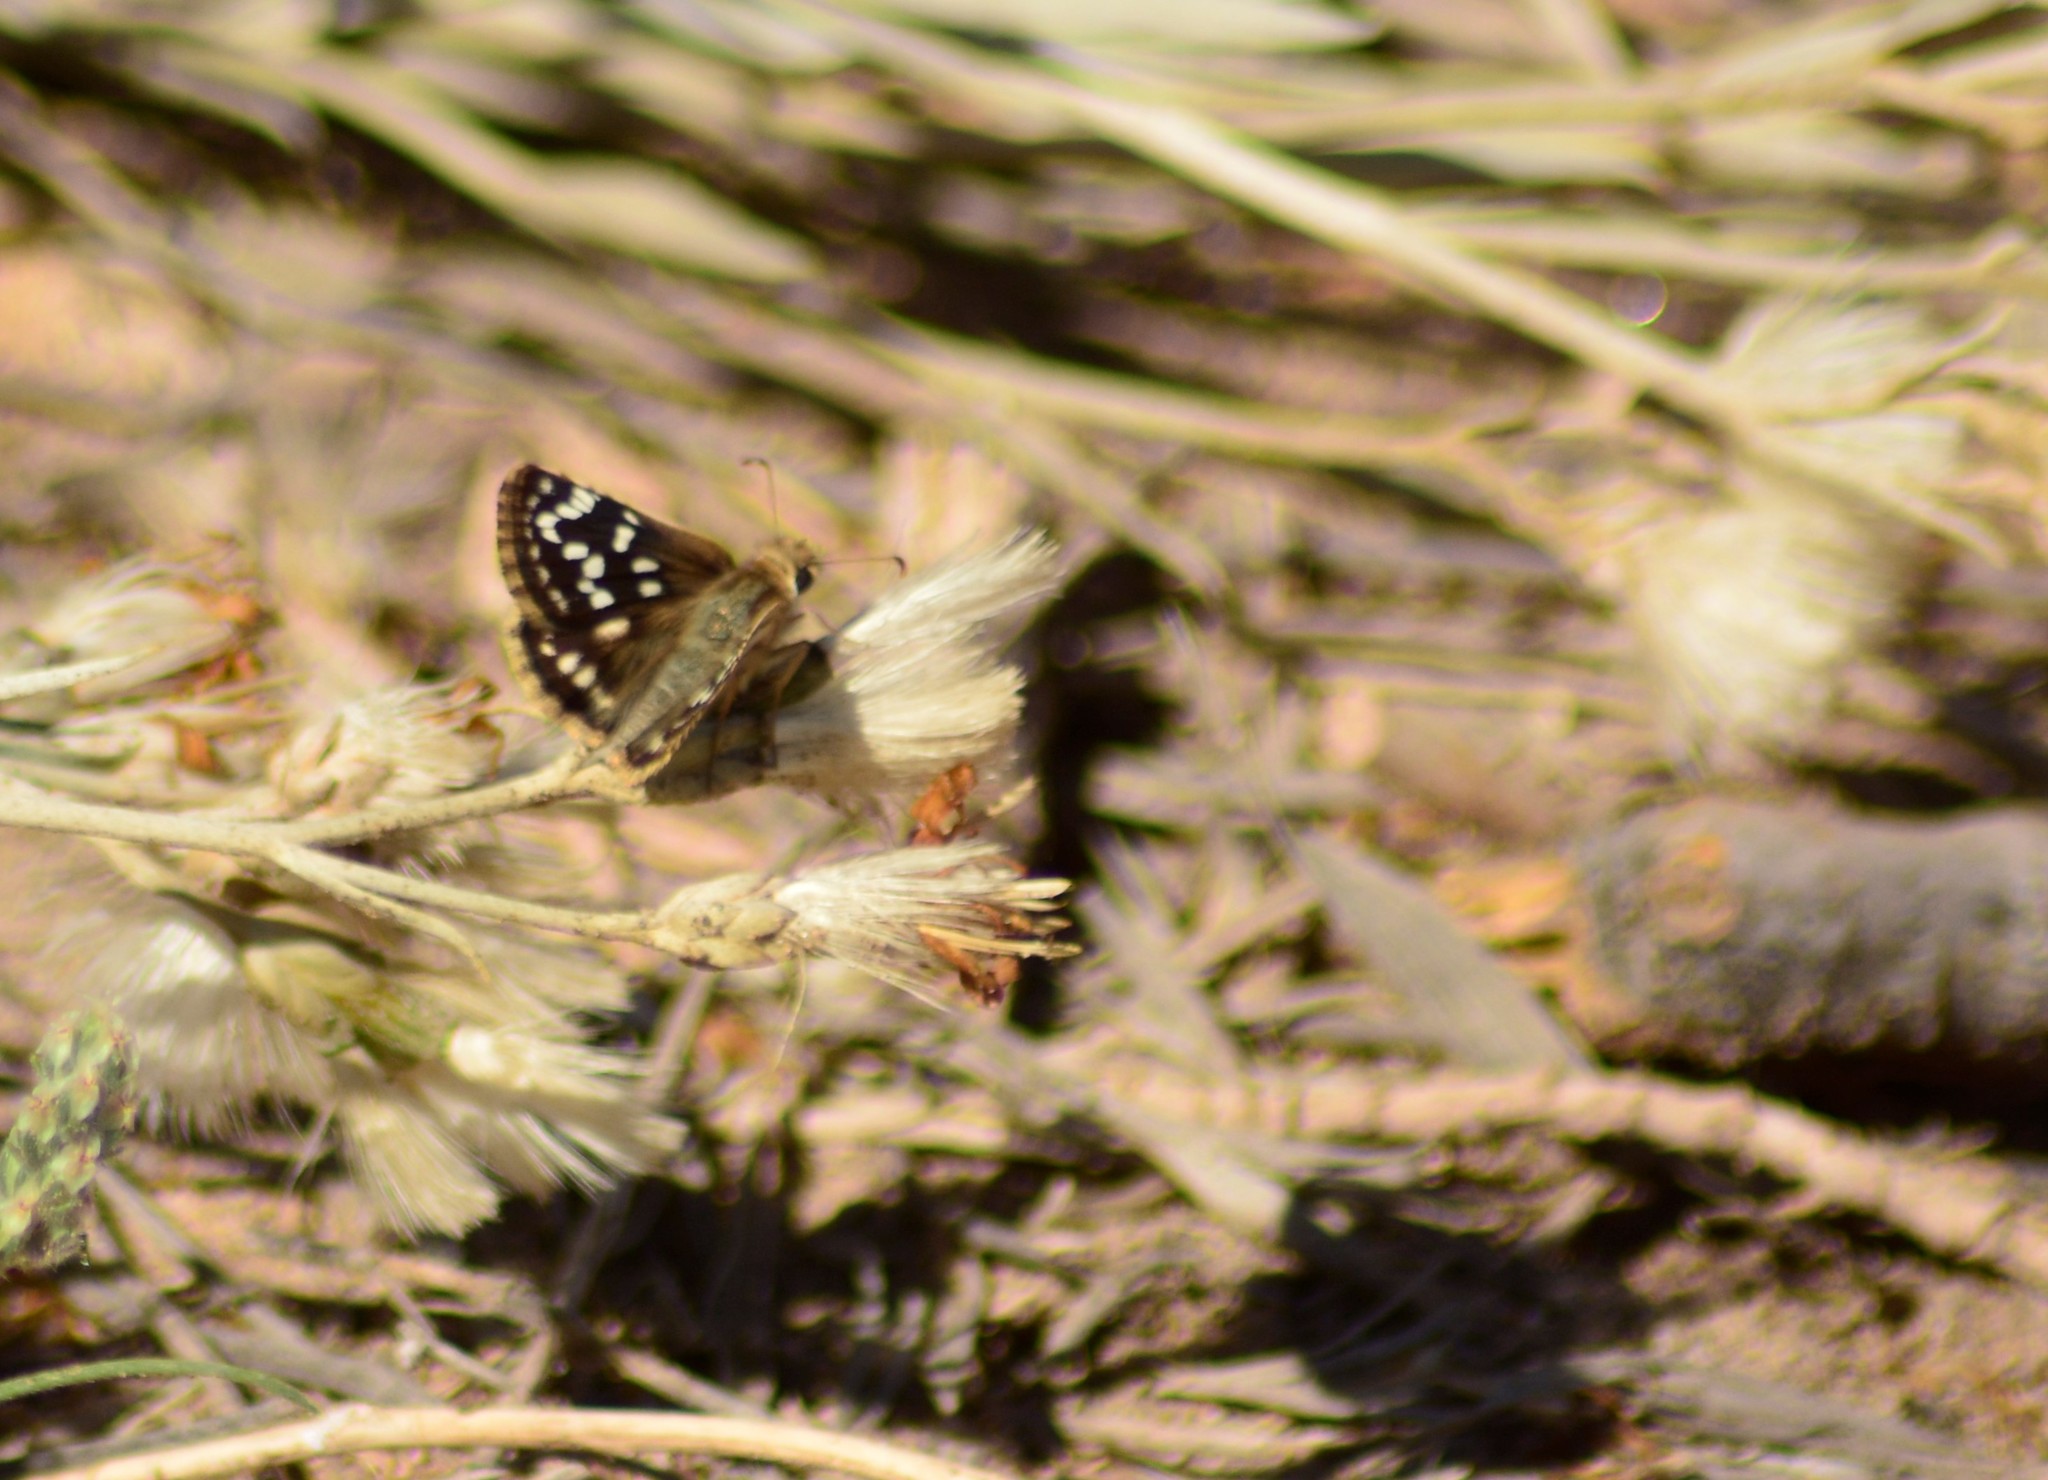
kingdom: Animalia
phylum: Arthropoda
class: Insecta
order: Lepidoptera
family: Hesperiidae
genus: Chirgus
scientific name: Chirgus fides
